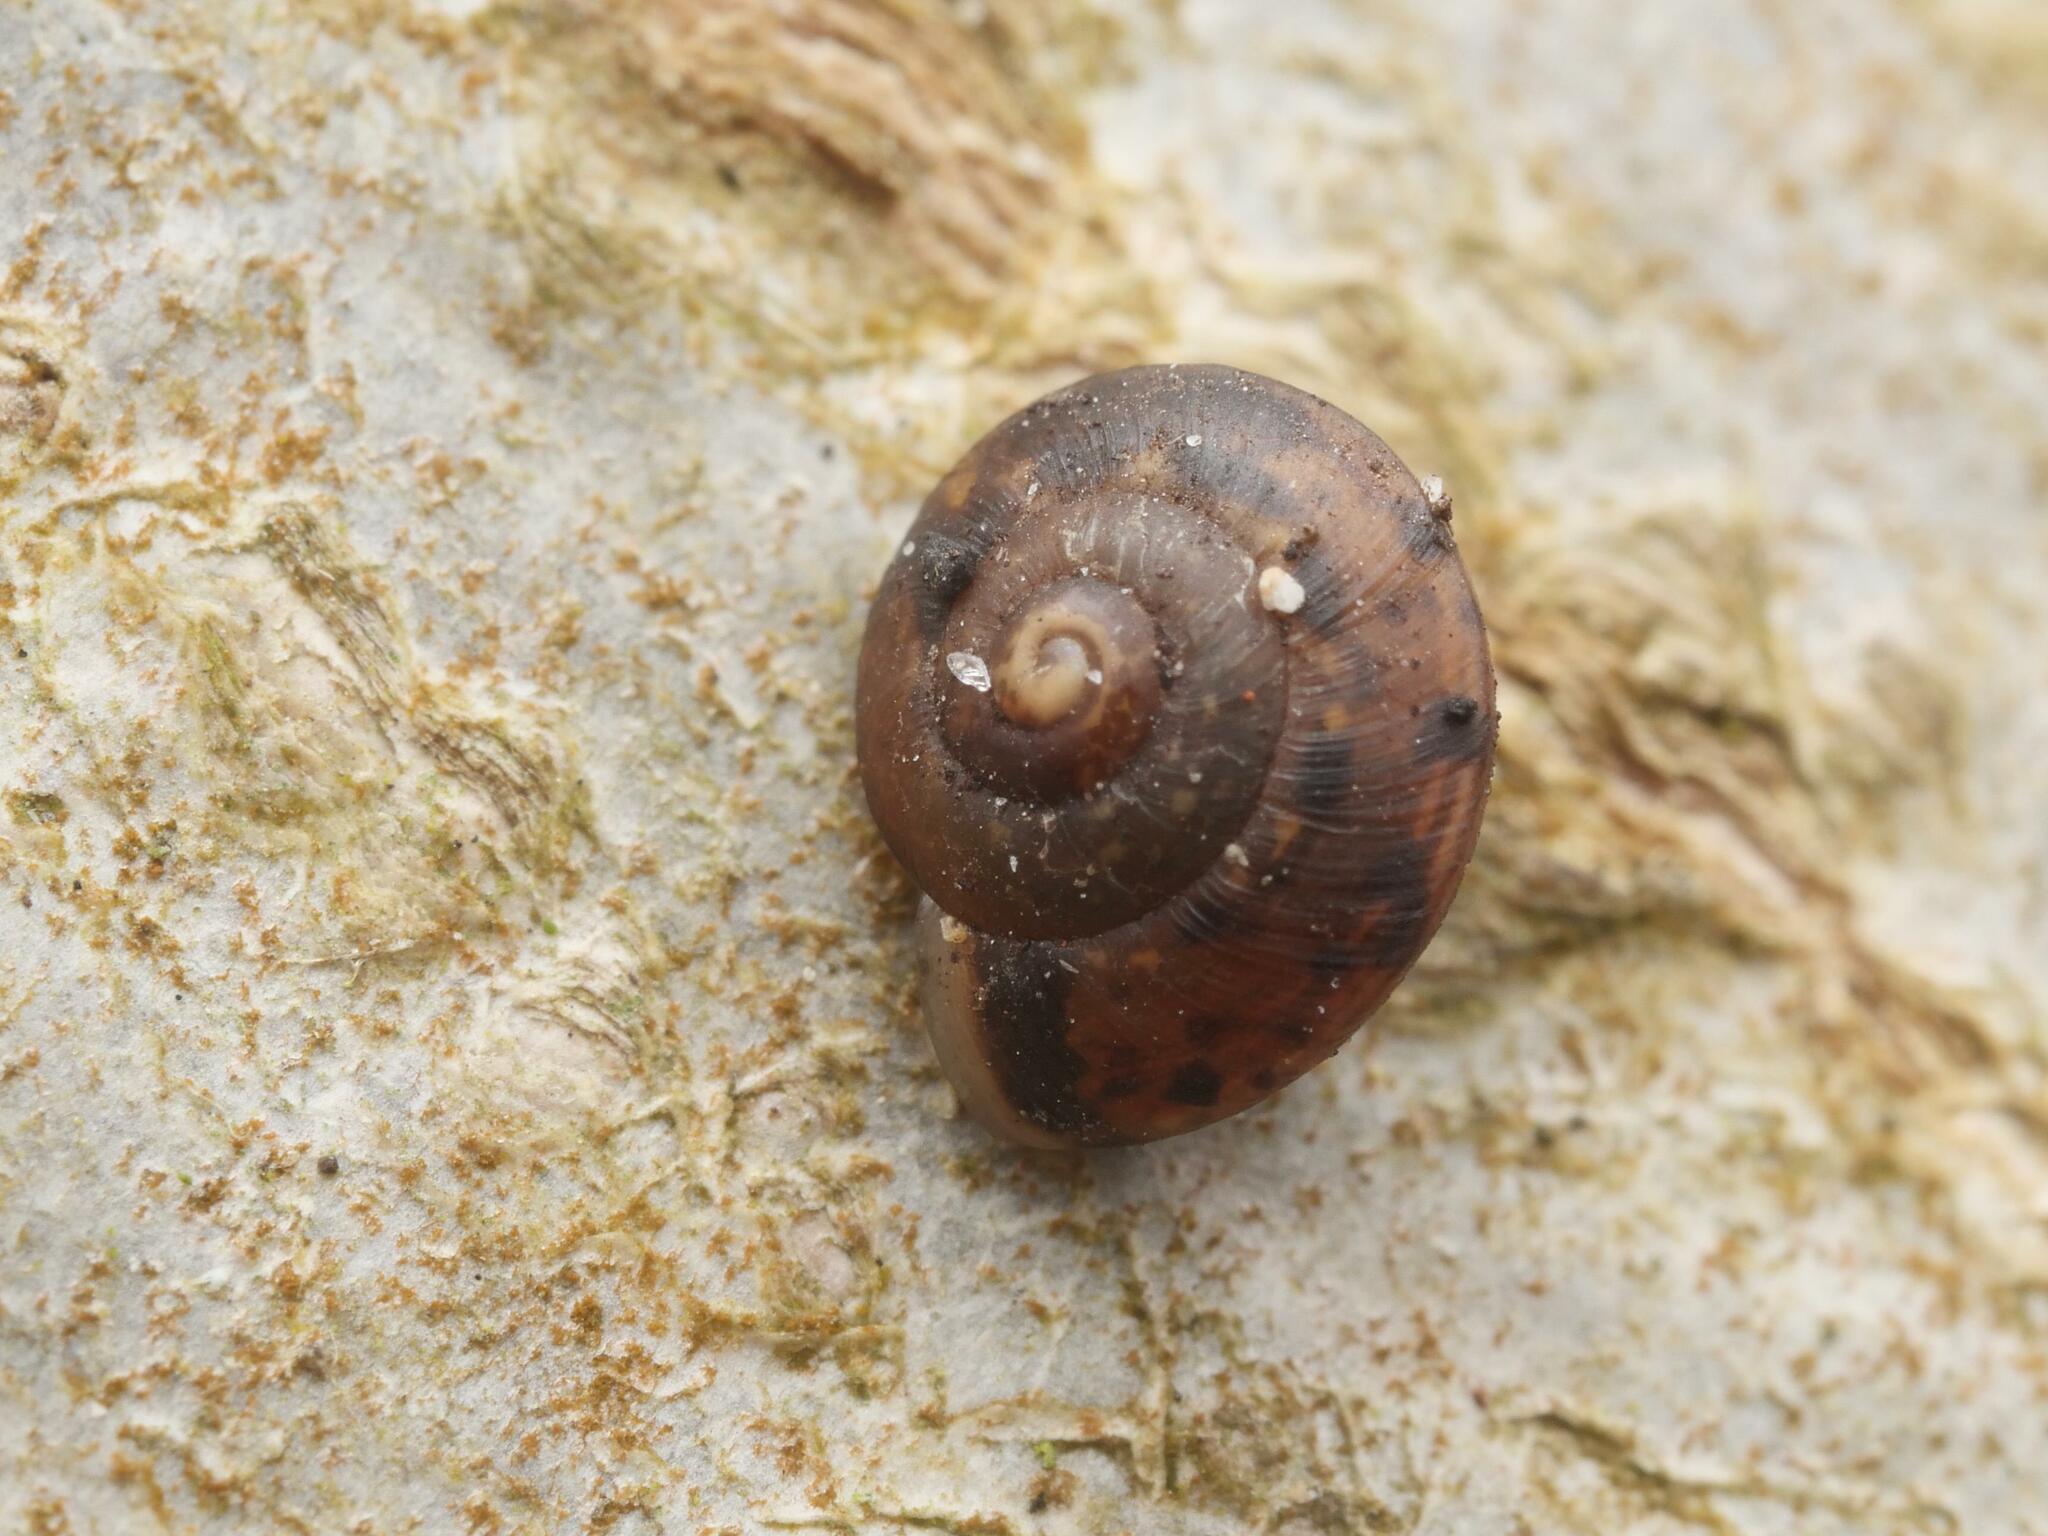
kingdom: Animalia
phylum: Mollusca
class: Gastropoda
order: Stylommatophora
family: Hygromiidae
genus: Hygromia
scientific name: Hygromia cinctella
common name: Girdled snail
